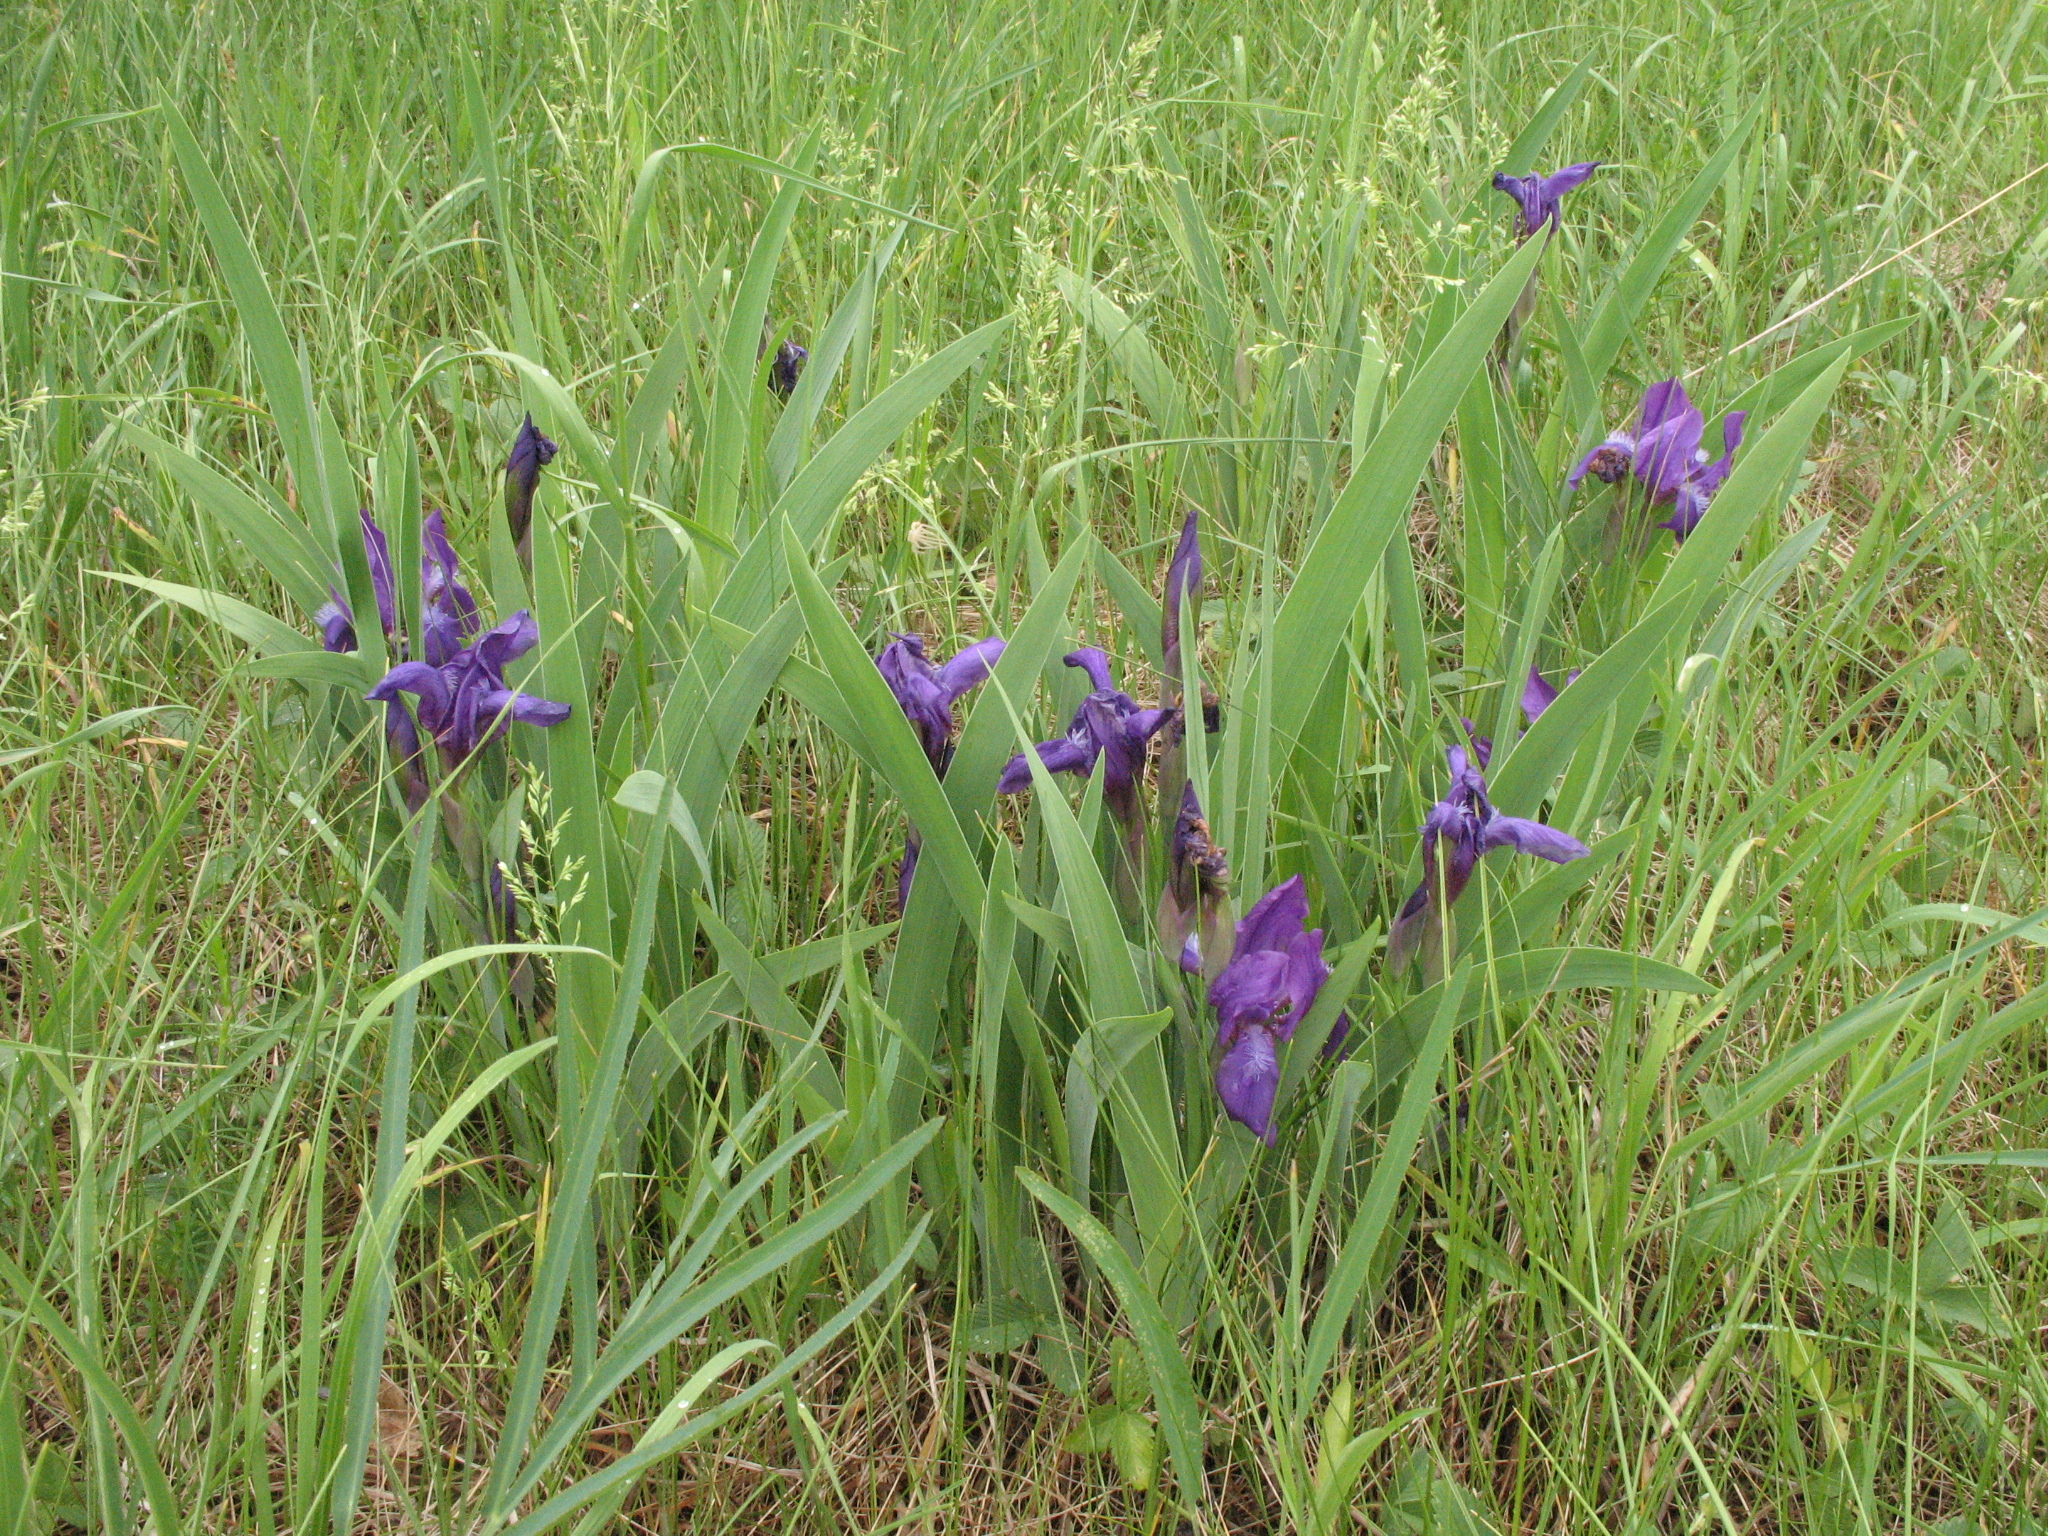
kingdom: Plantae
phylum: Tracheophyta
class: Liliopsida
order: Asparagales
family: Iridaceae
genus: Iris
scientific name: Iris aphylla
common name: Stool iris
